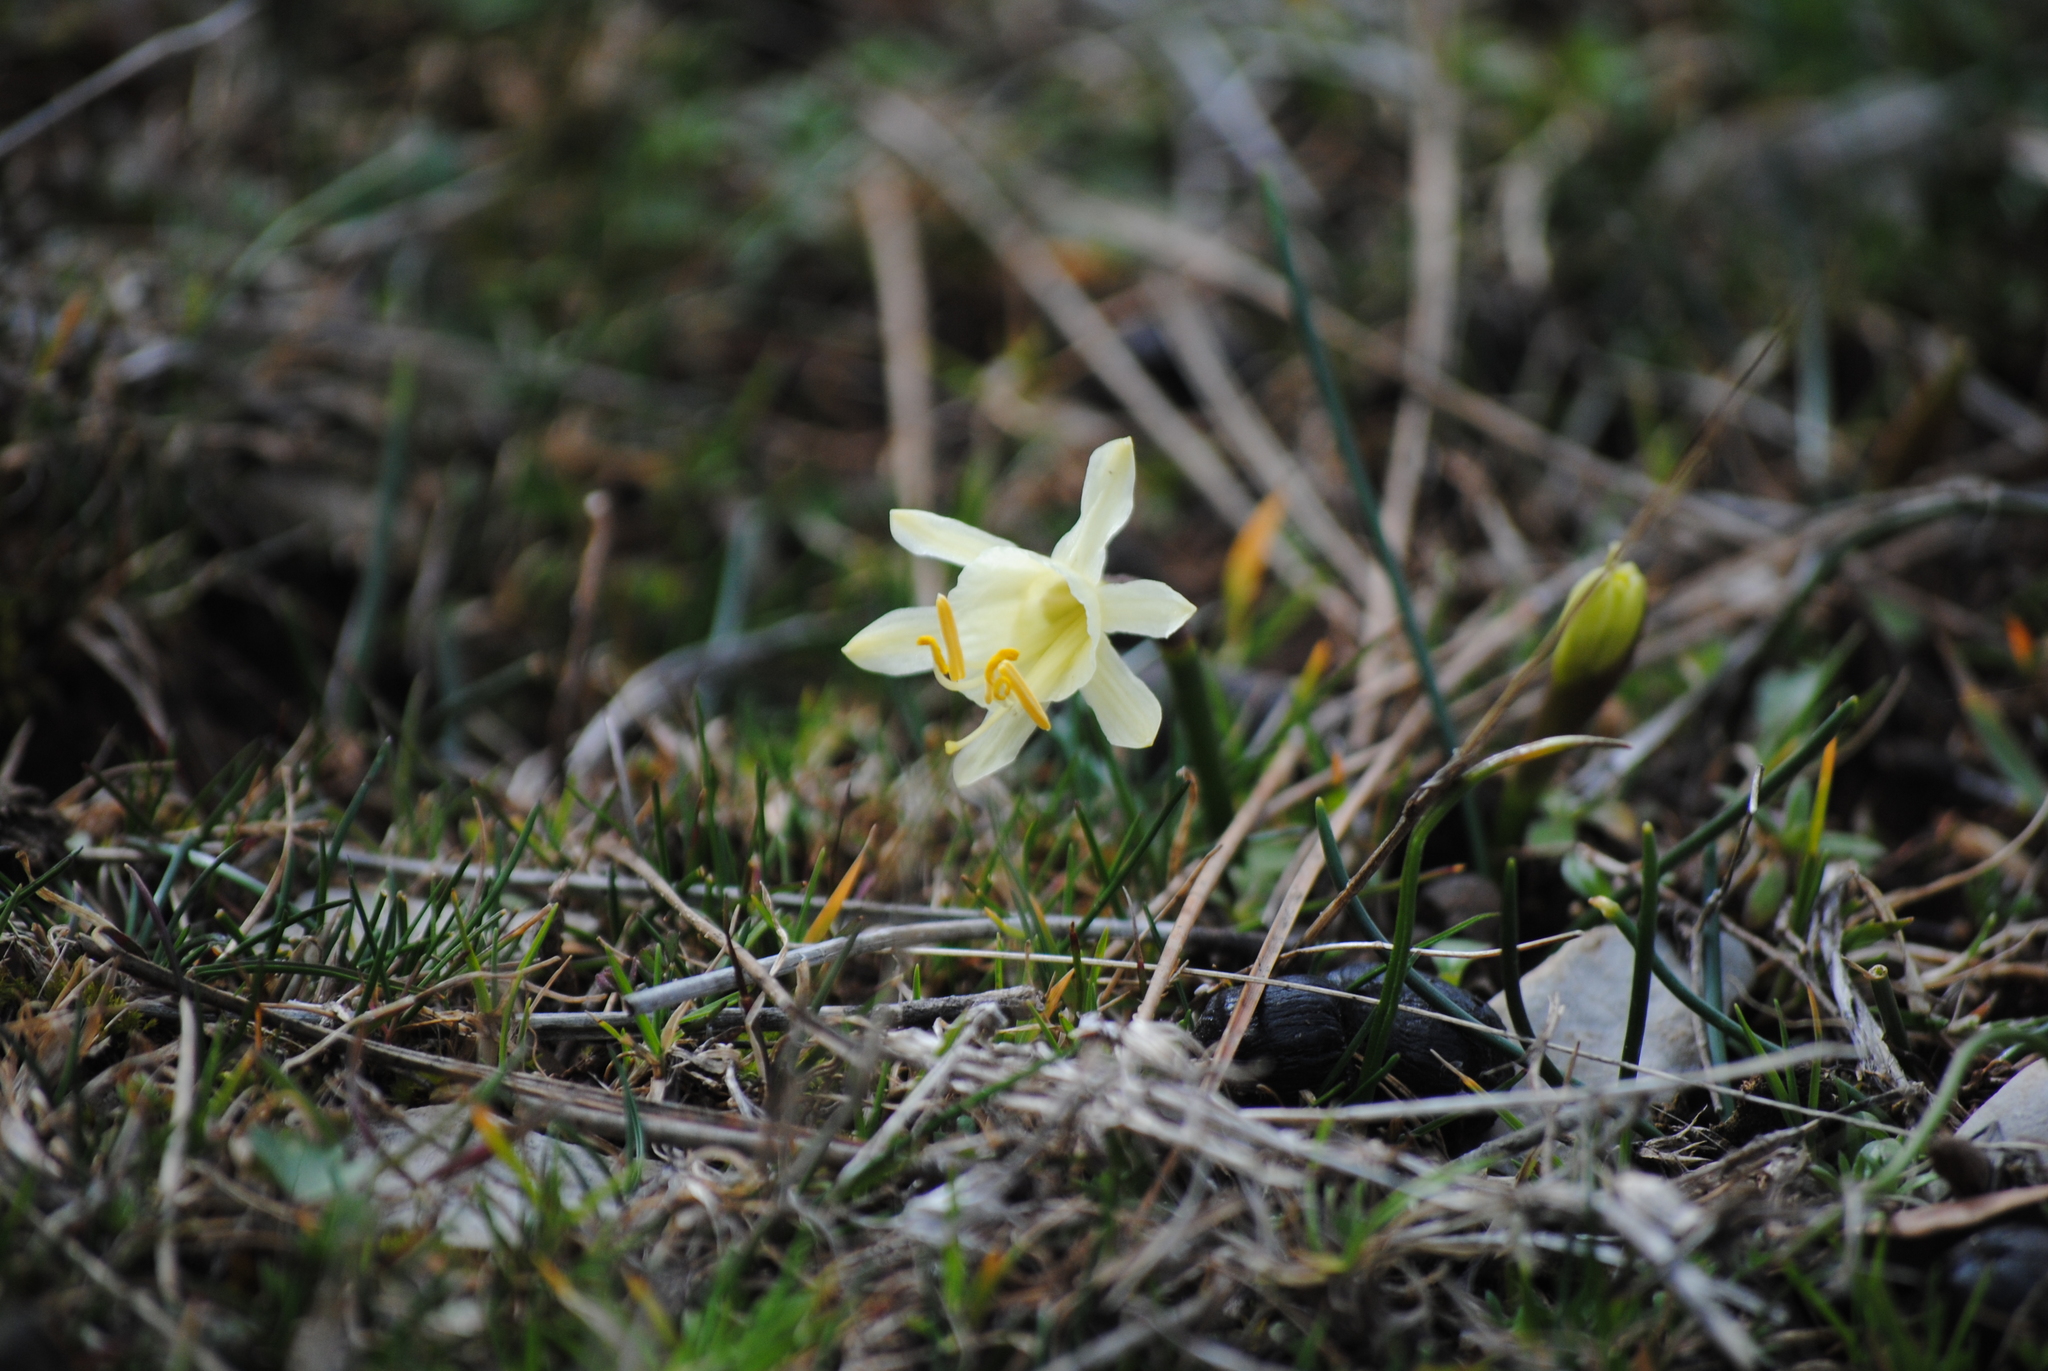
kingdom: Plantae
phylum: Tracheophyta
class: Liliopsida
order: Asparagales
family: Amaryllidaceae
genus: Narcissus
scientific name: Narcissus hedraeanthus
